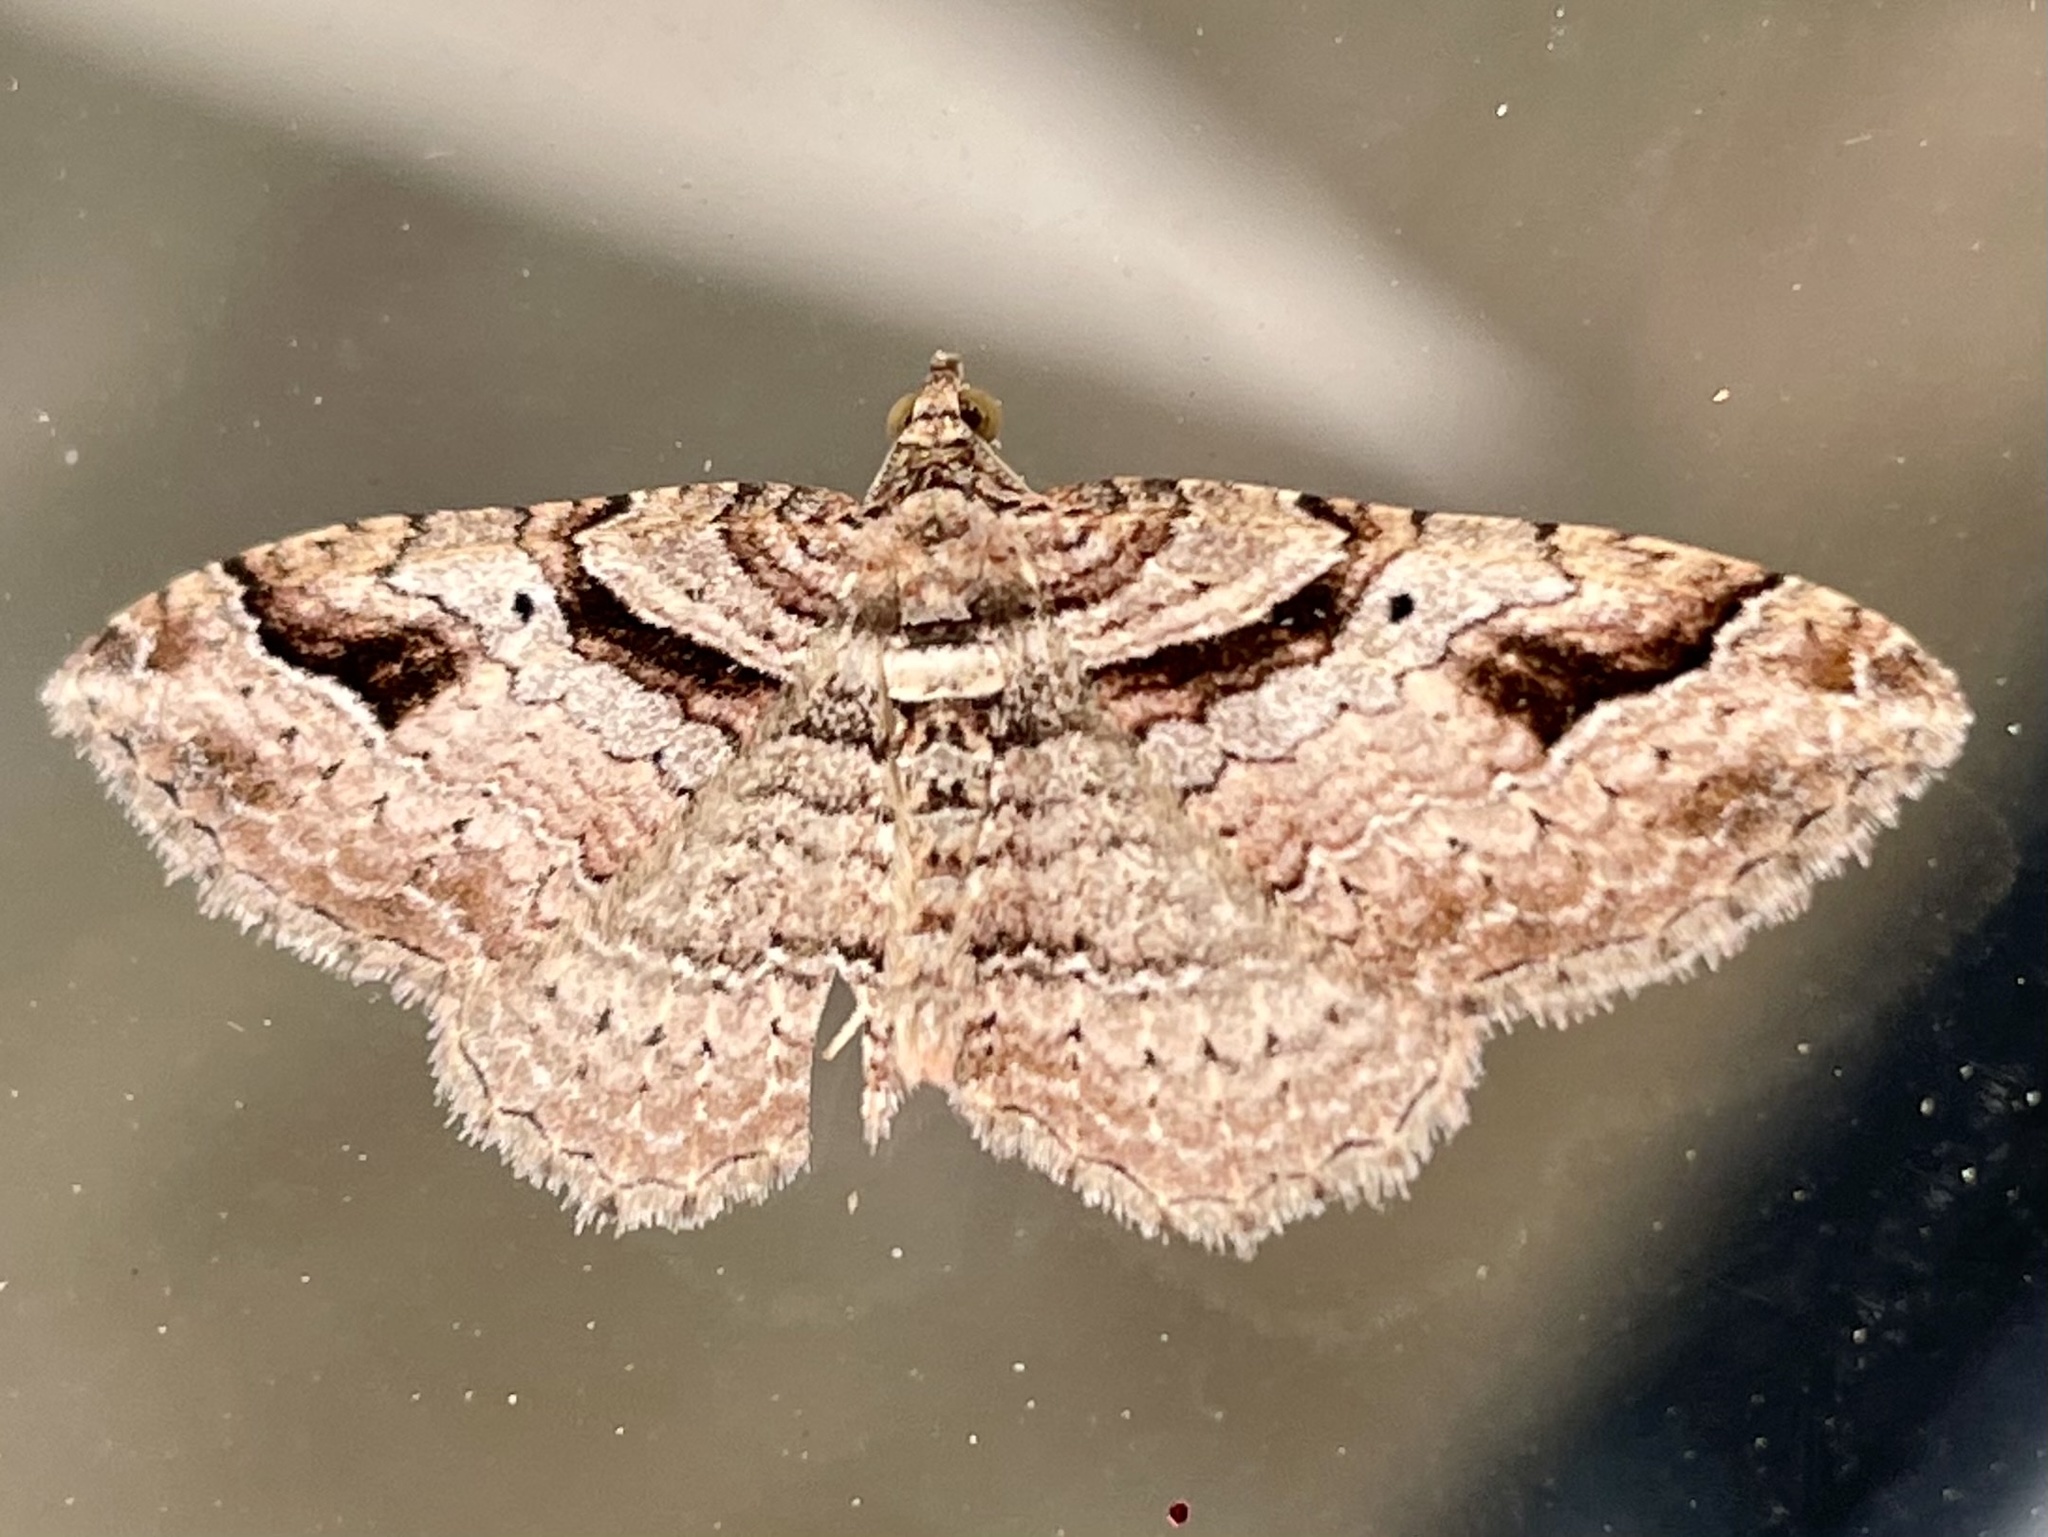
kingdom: Animalia
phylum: Arthropoda
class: Insecta
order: Lepidoptera
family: Geometridae
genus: Costaconvexa
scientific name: Costaconvexa centrostrigaria
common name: Bent-line carpet
